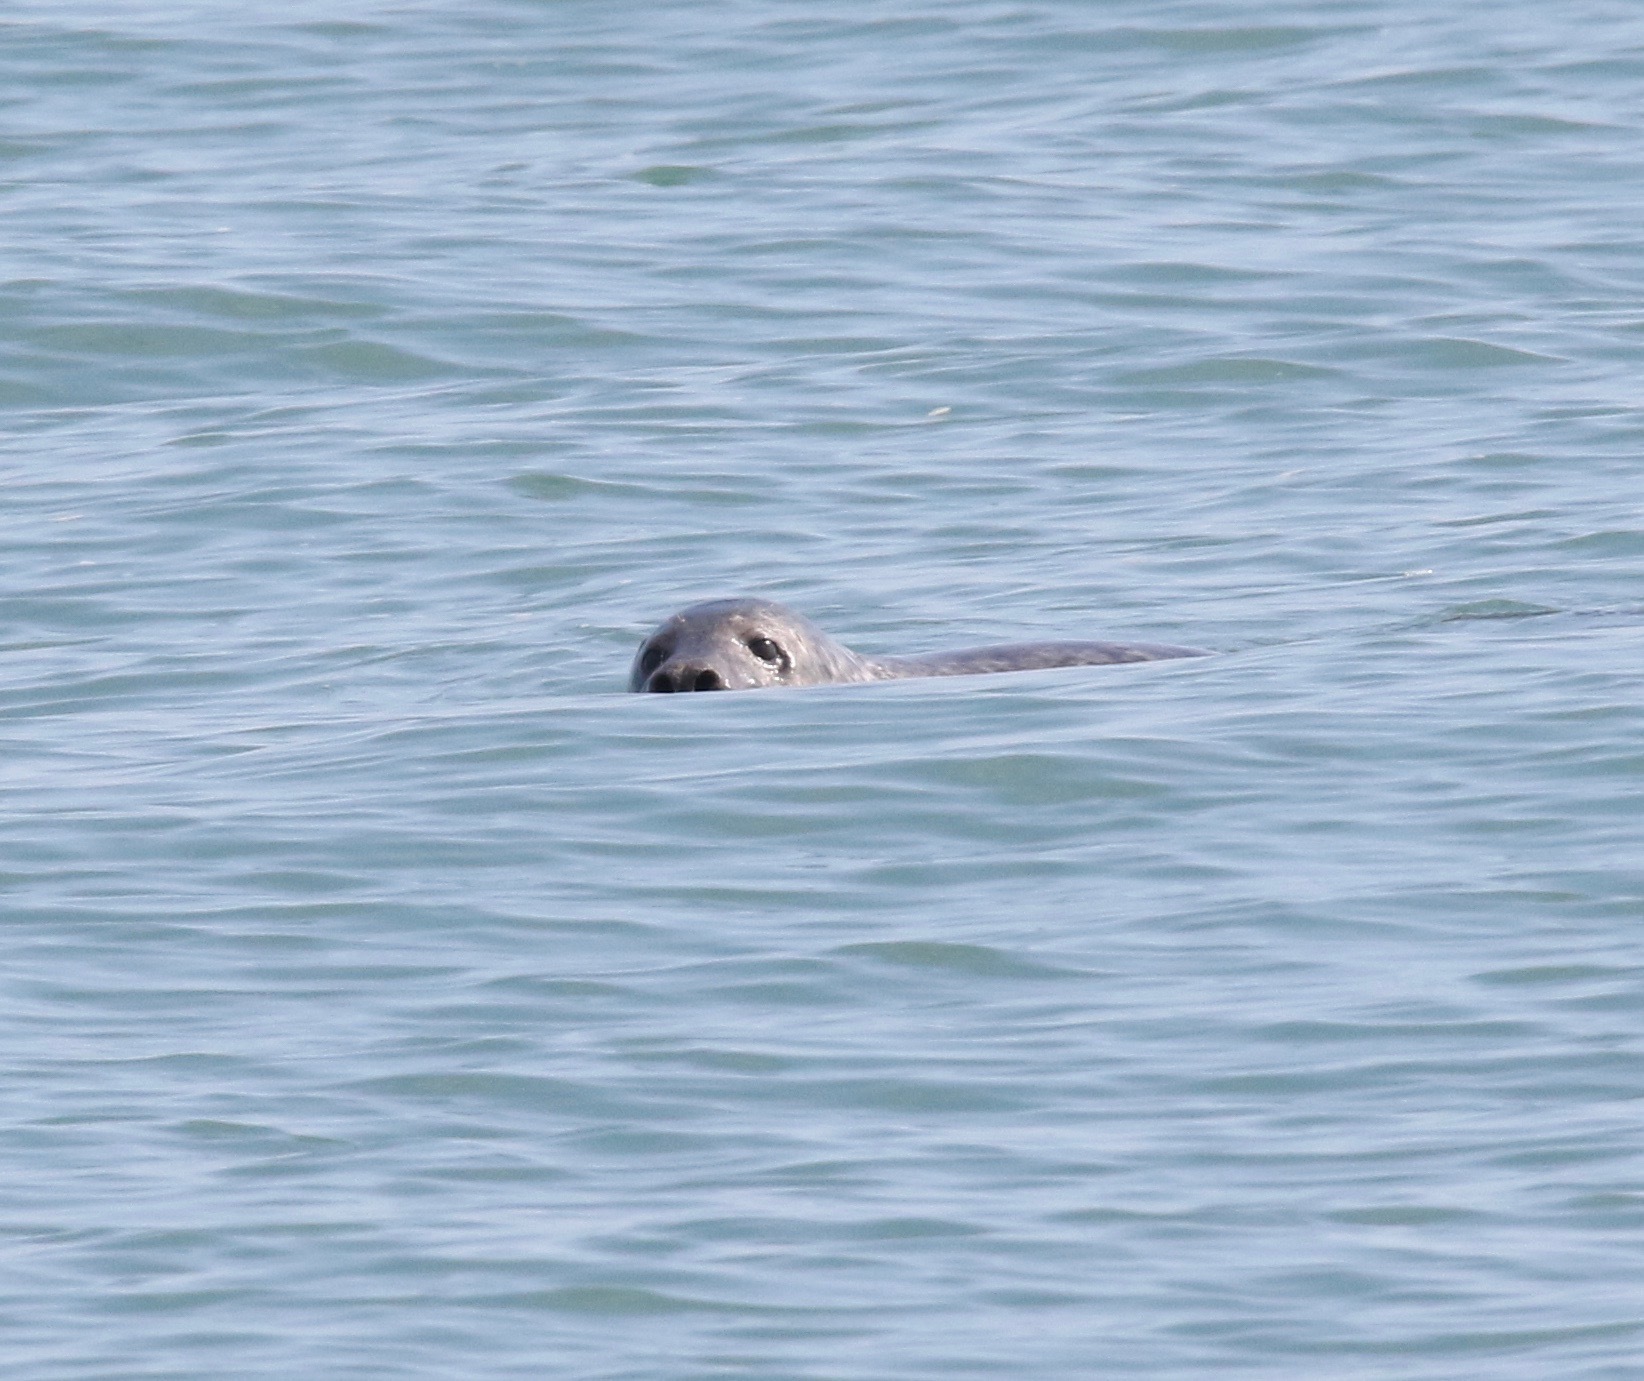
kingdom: Animalia
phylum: Chordata
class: Mammalia
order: Carnivora
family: Phocidae
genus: Halichoerus
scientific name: Halichoerus grypus
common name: Grey seal
